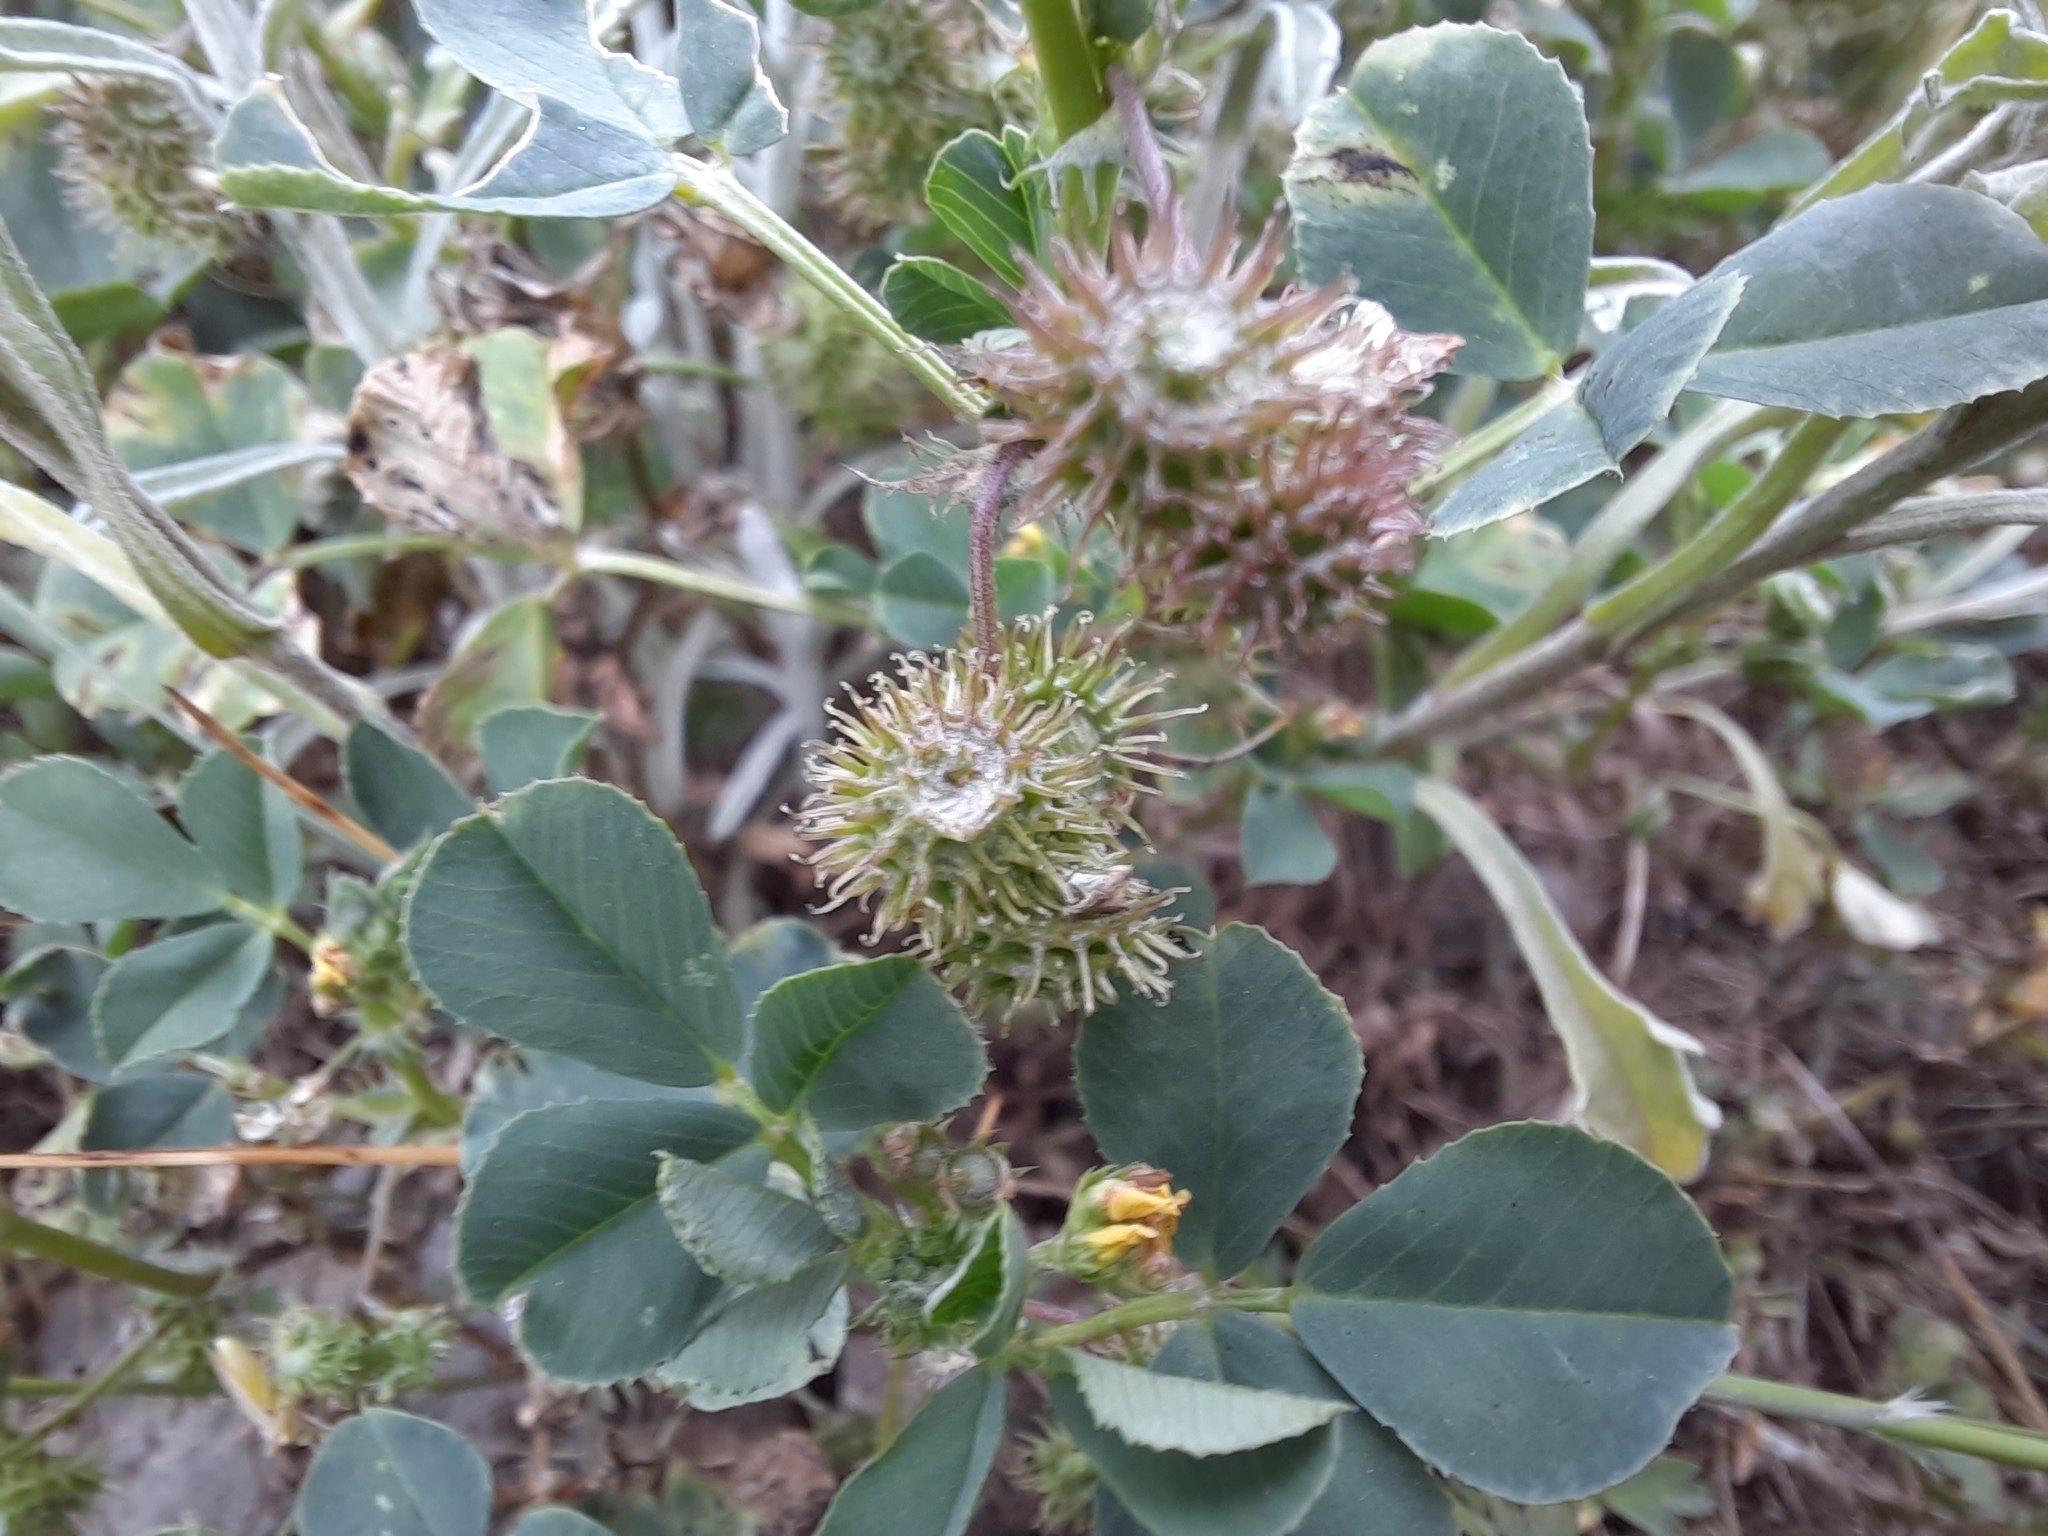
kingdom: Plantae
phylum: Tracheophyta
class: Magnoliopsida
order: Fabales
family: Fabaceae
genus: Medicago
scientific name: Medicago polymorpha
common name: Burclover
